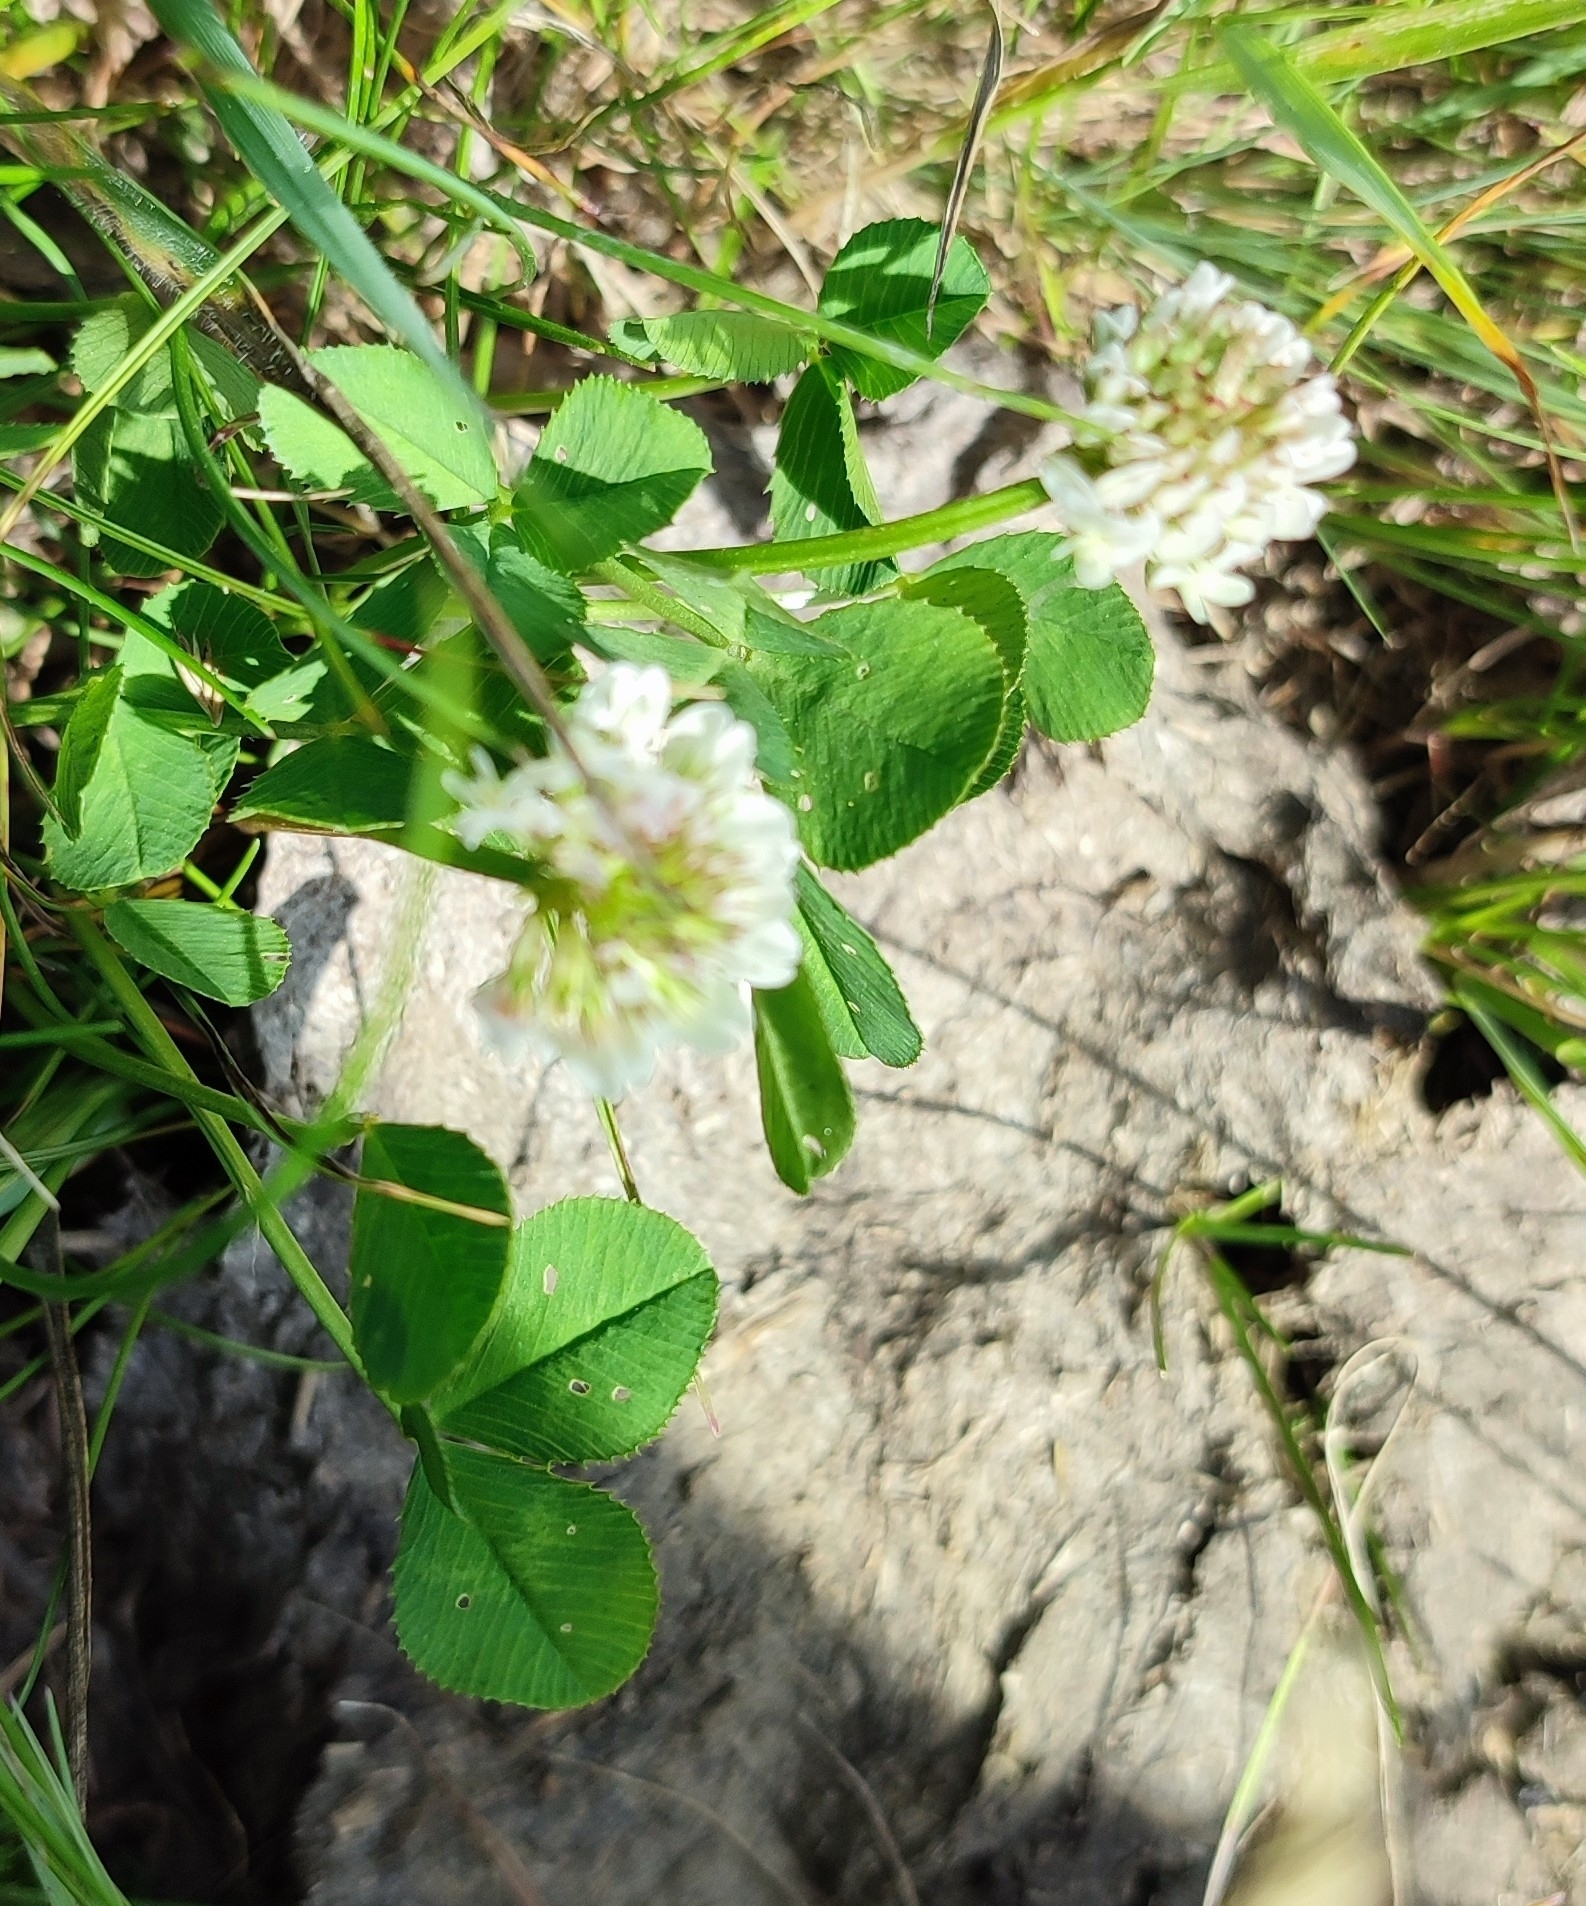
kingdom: Plantae
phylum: Tracheophyta
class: Magnoliopsida
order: Fabales
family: Fabaceae
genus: Trifolium
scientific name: Trifolium repens
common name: White clover
